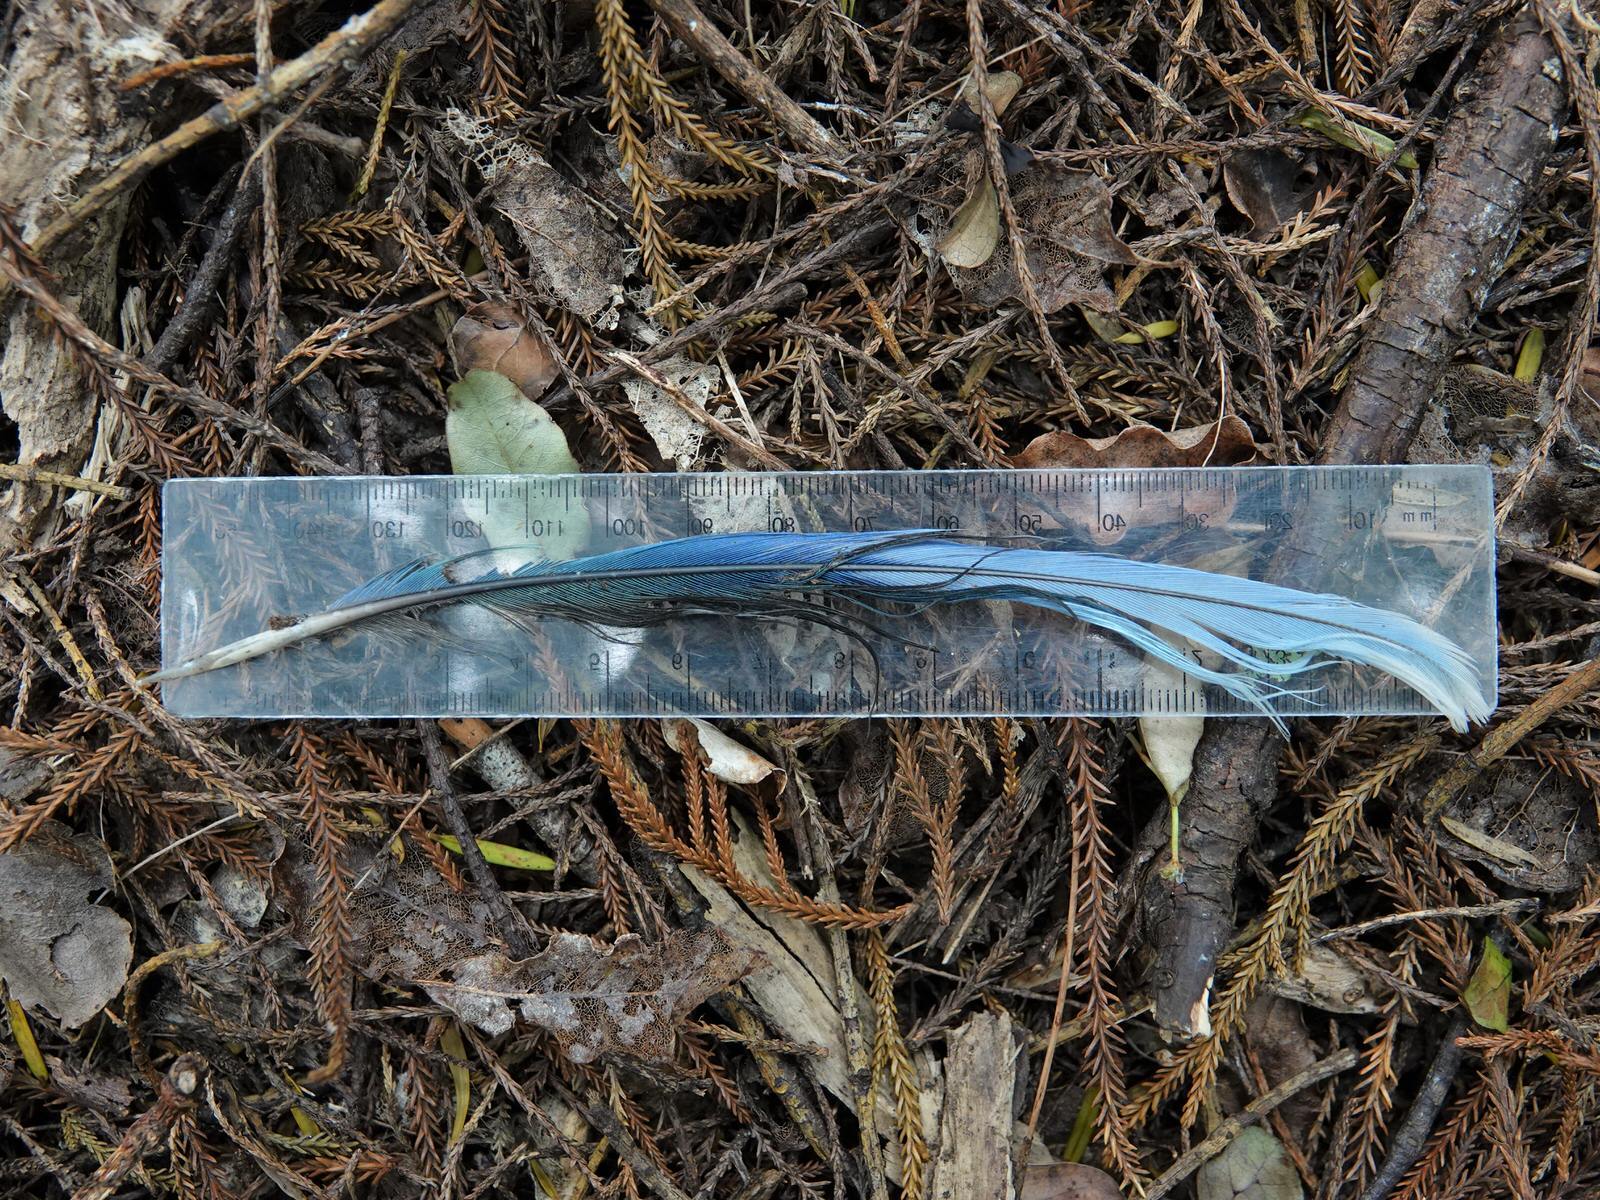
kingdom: Animalia
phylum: Chordata
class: Aves
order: Psittaciformes
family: Psittacidae
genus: Platycercus
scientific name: Platycercus eximius
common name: Eastern rosella
